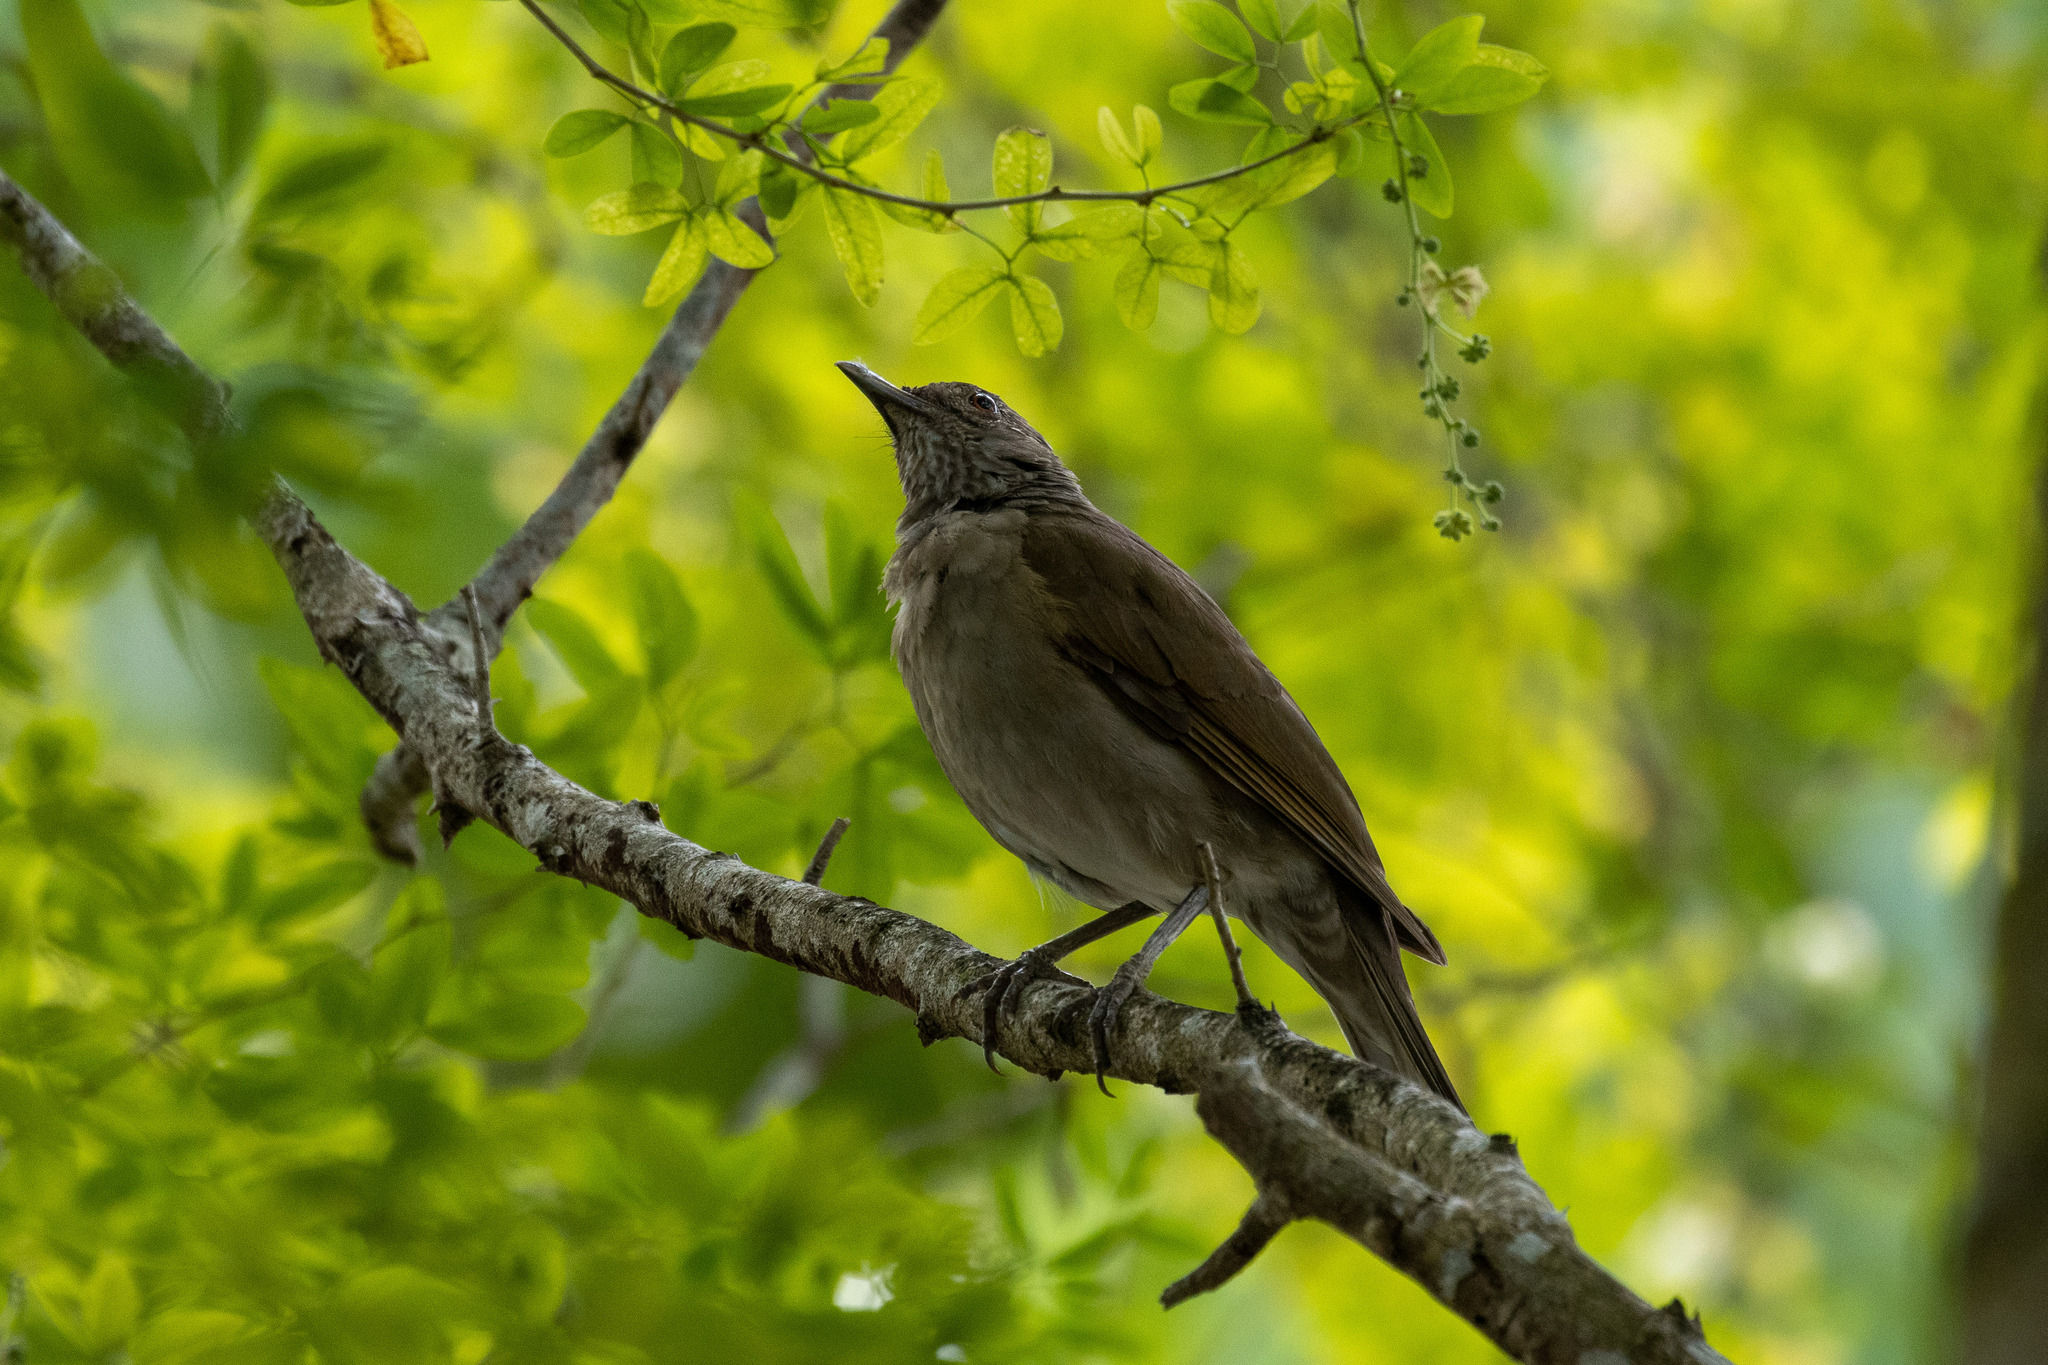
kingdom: Animalia
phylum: Chordata
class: Aves
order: Passeriformes
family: Turdidae
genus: Turdus
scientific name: Turdus leucomelas
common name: Pale-breasted thrush
